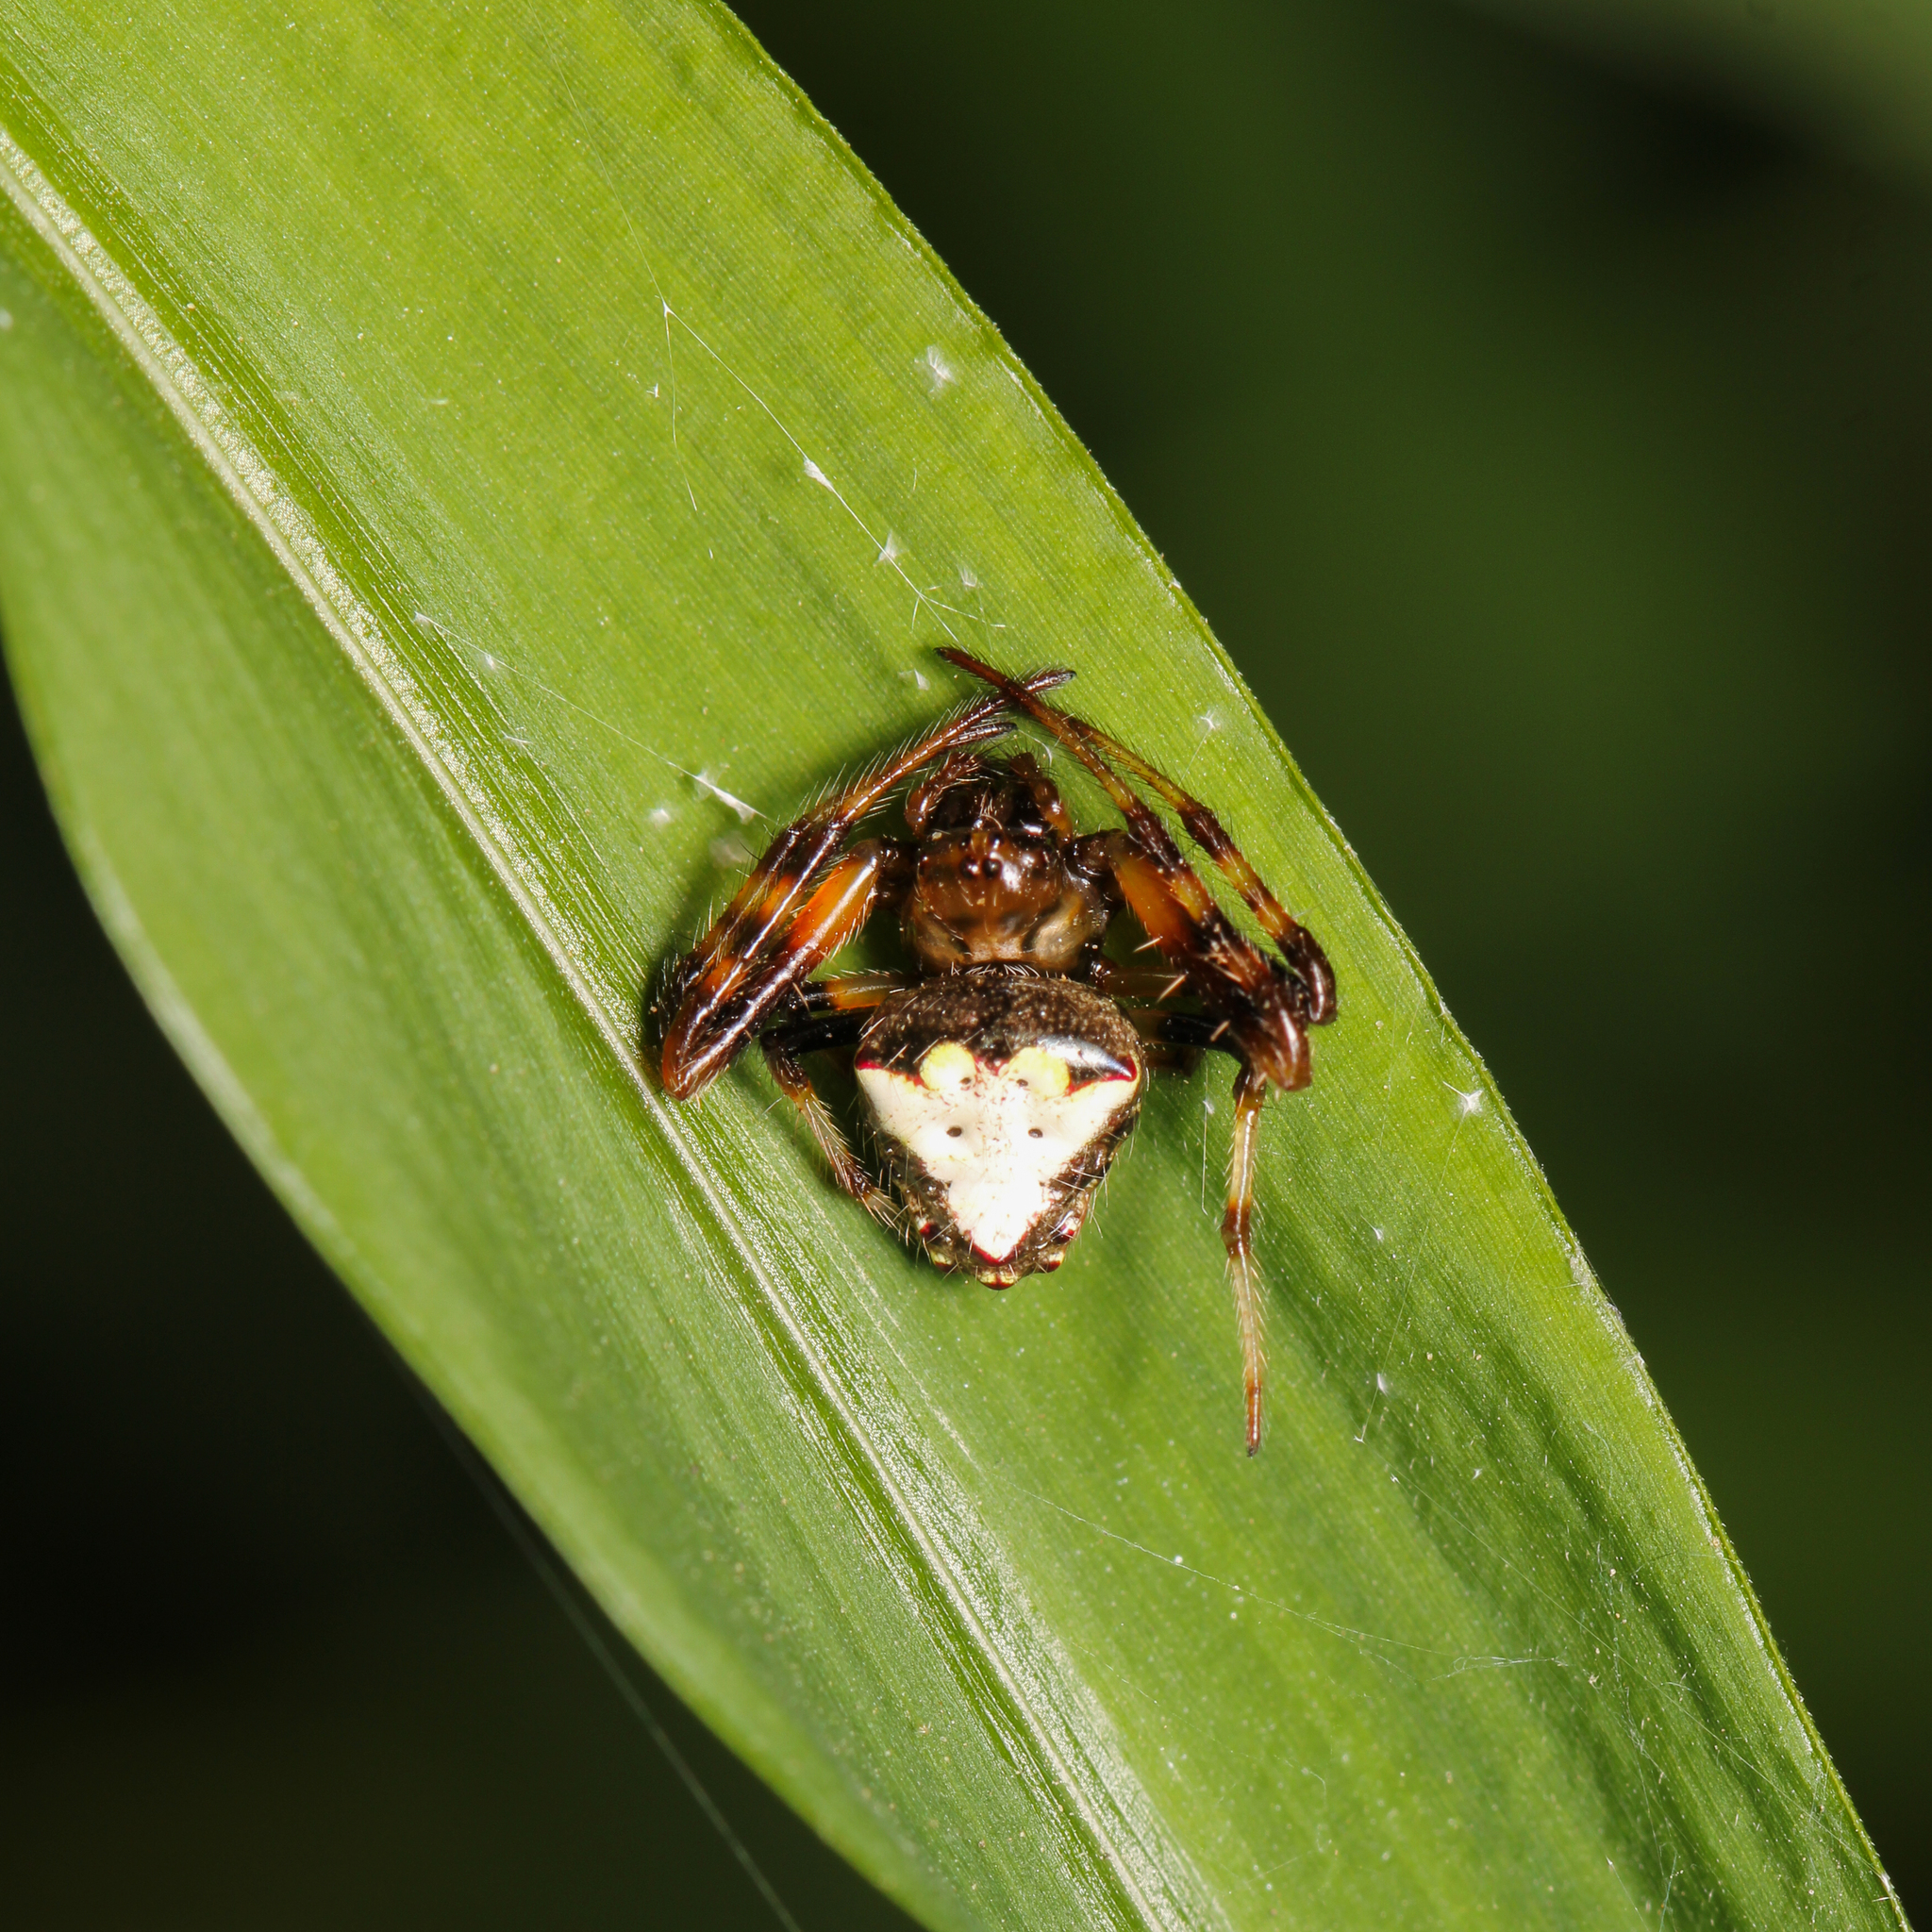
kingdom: Animalia
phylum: Arthropoda
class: Arachnida
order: Araneae
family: Araneidae
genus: Verrucosa
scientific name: Verrucosa arenata
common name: Orb weavers
